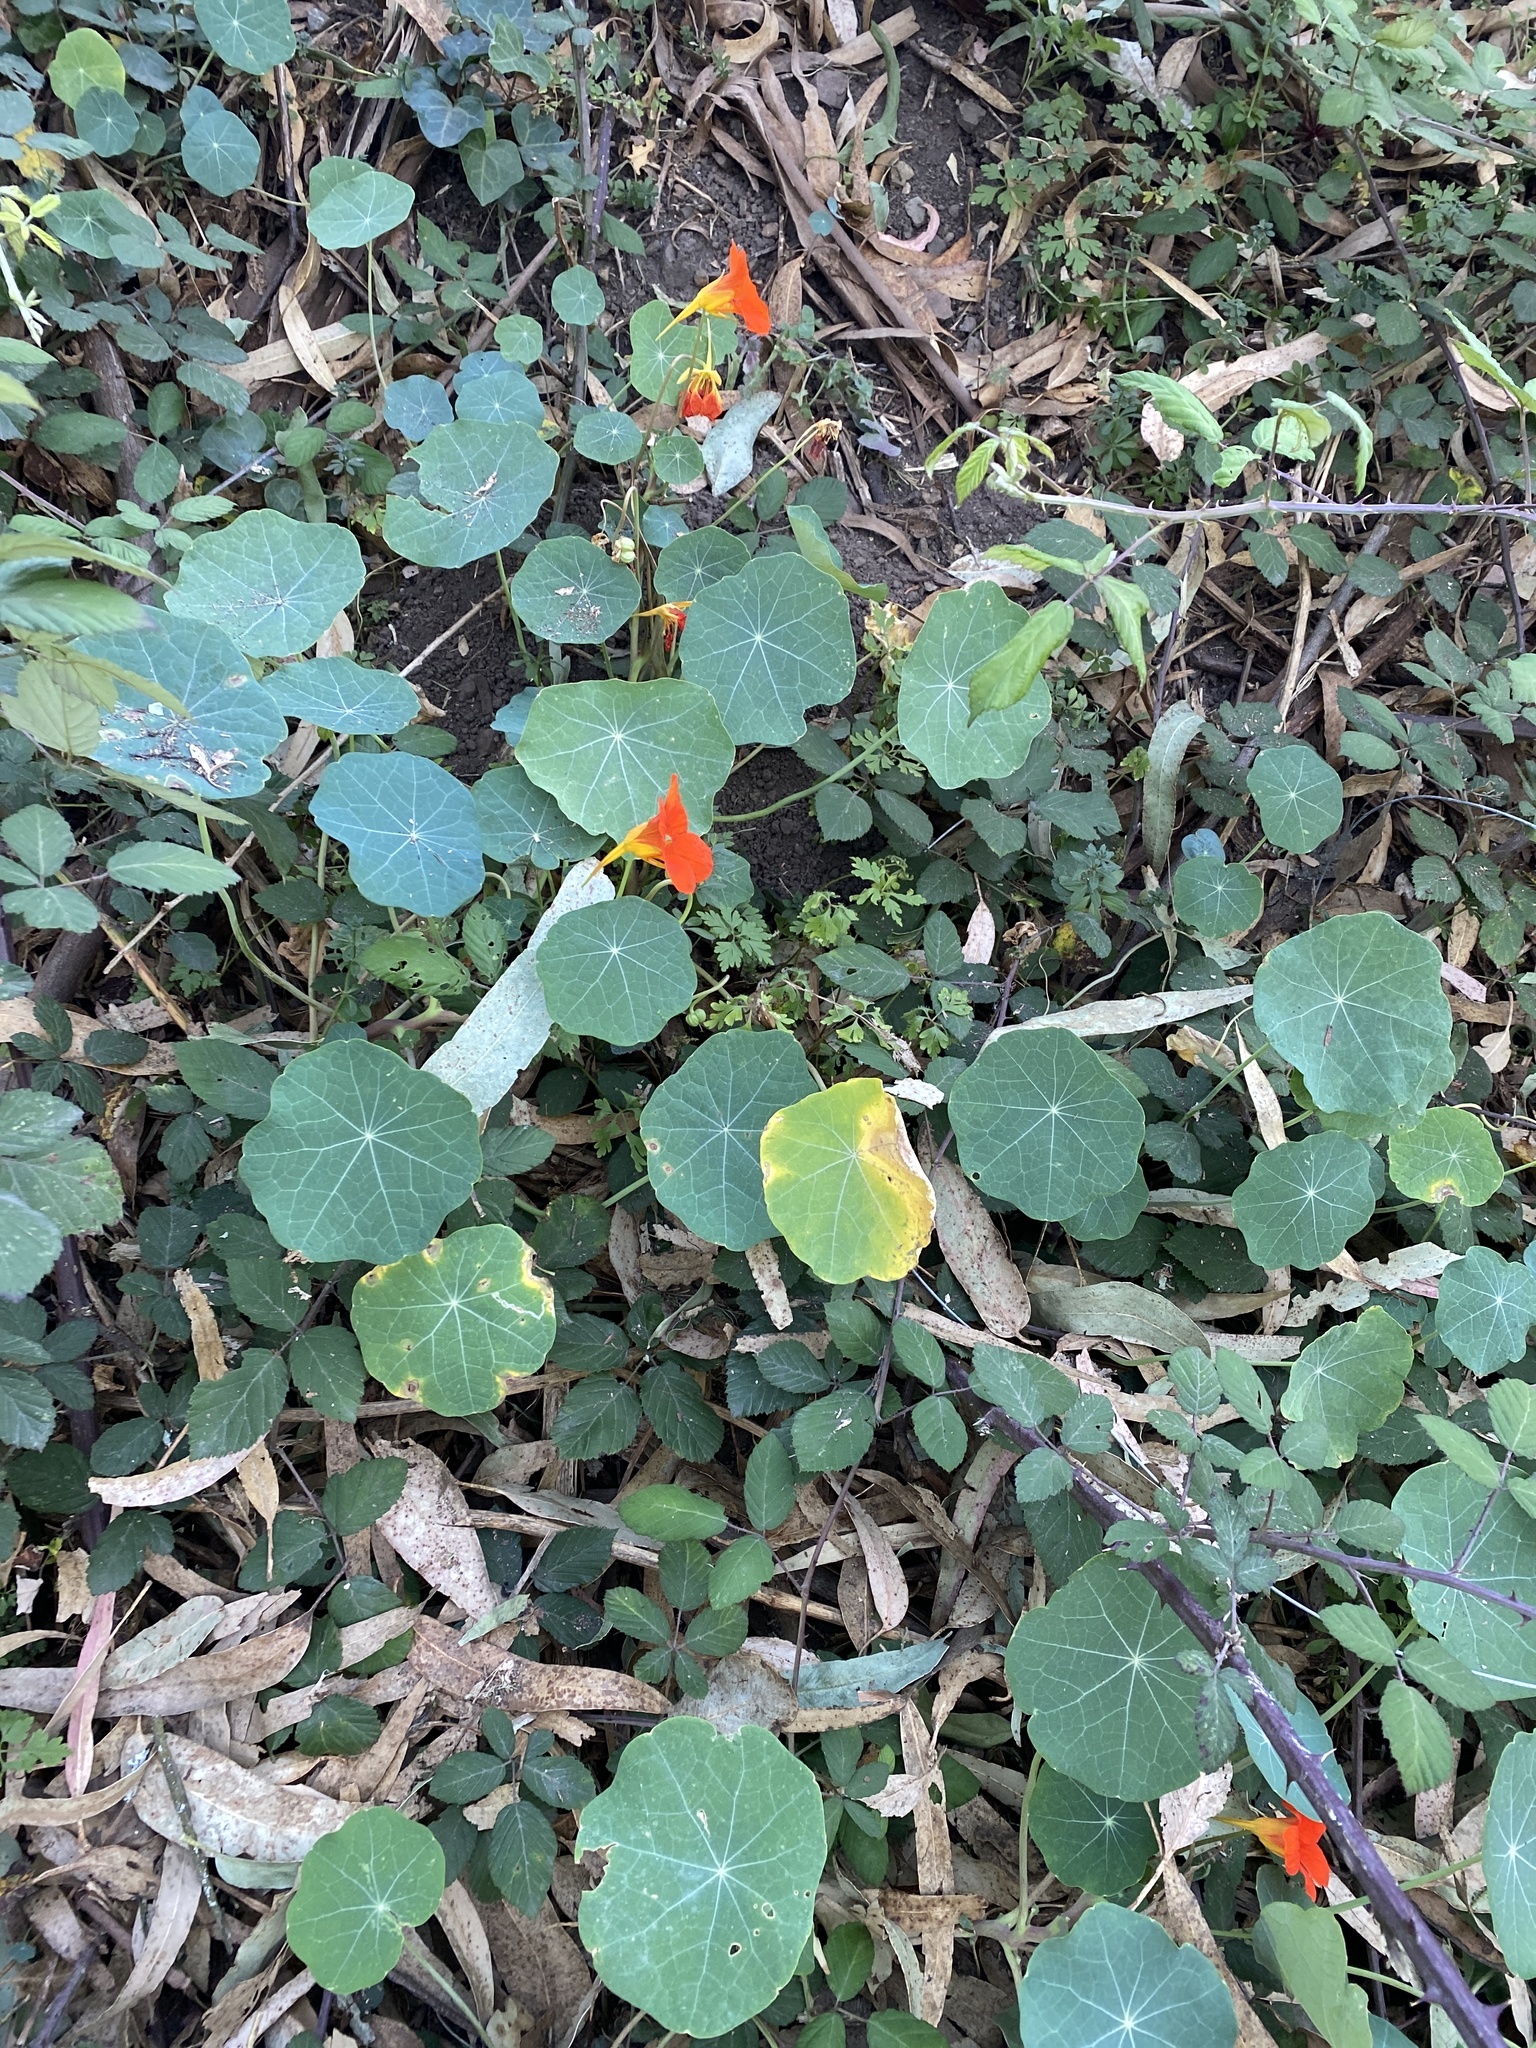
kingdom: Plantae
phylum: Tracheophyta
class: Magnoliopsida
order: Brassicales
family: Tropaeolaceae
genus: Tropaeolum
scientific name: Tropaeolum majus
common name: Nasturtium
